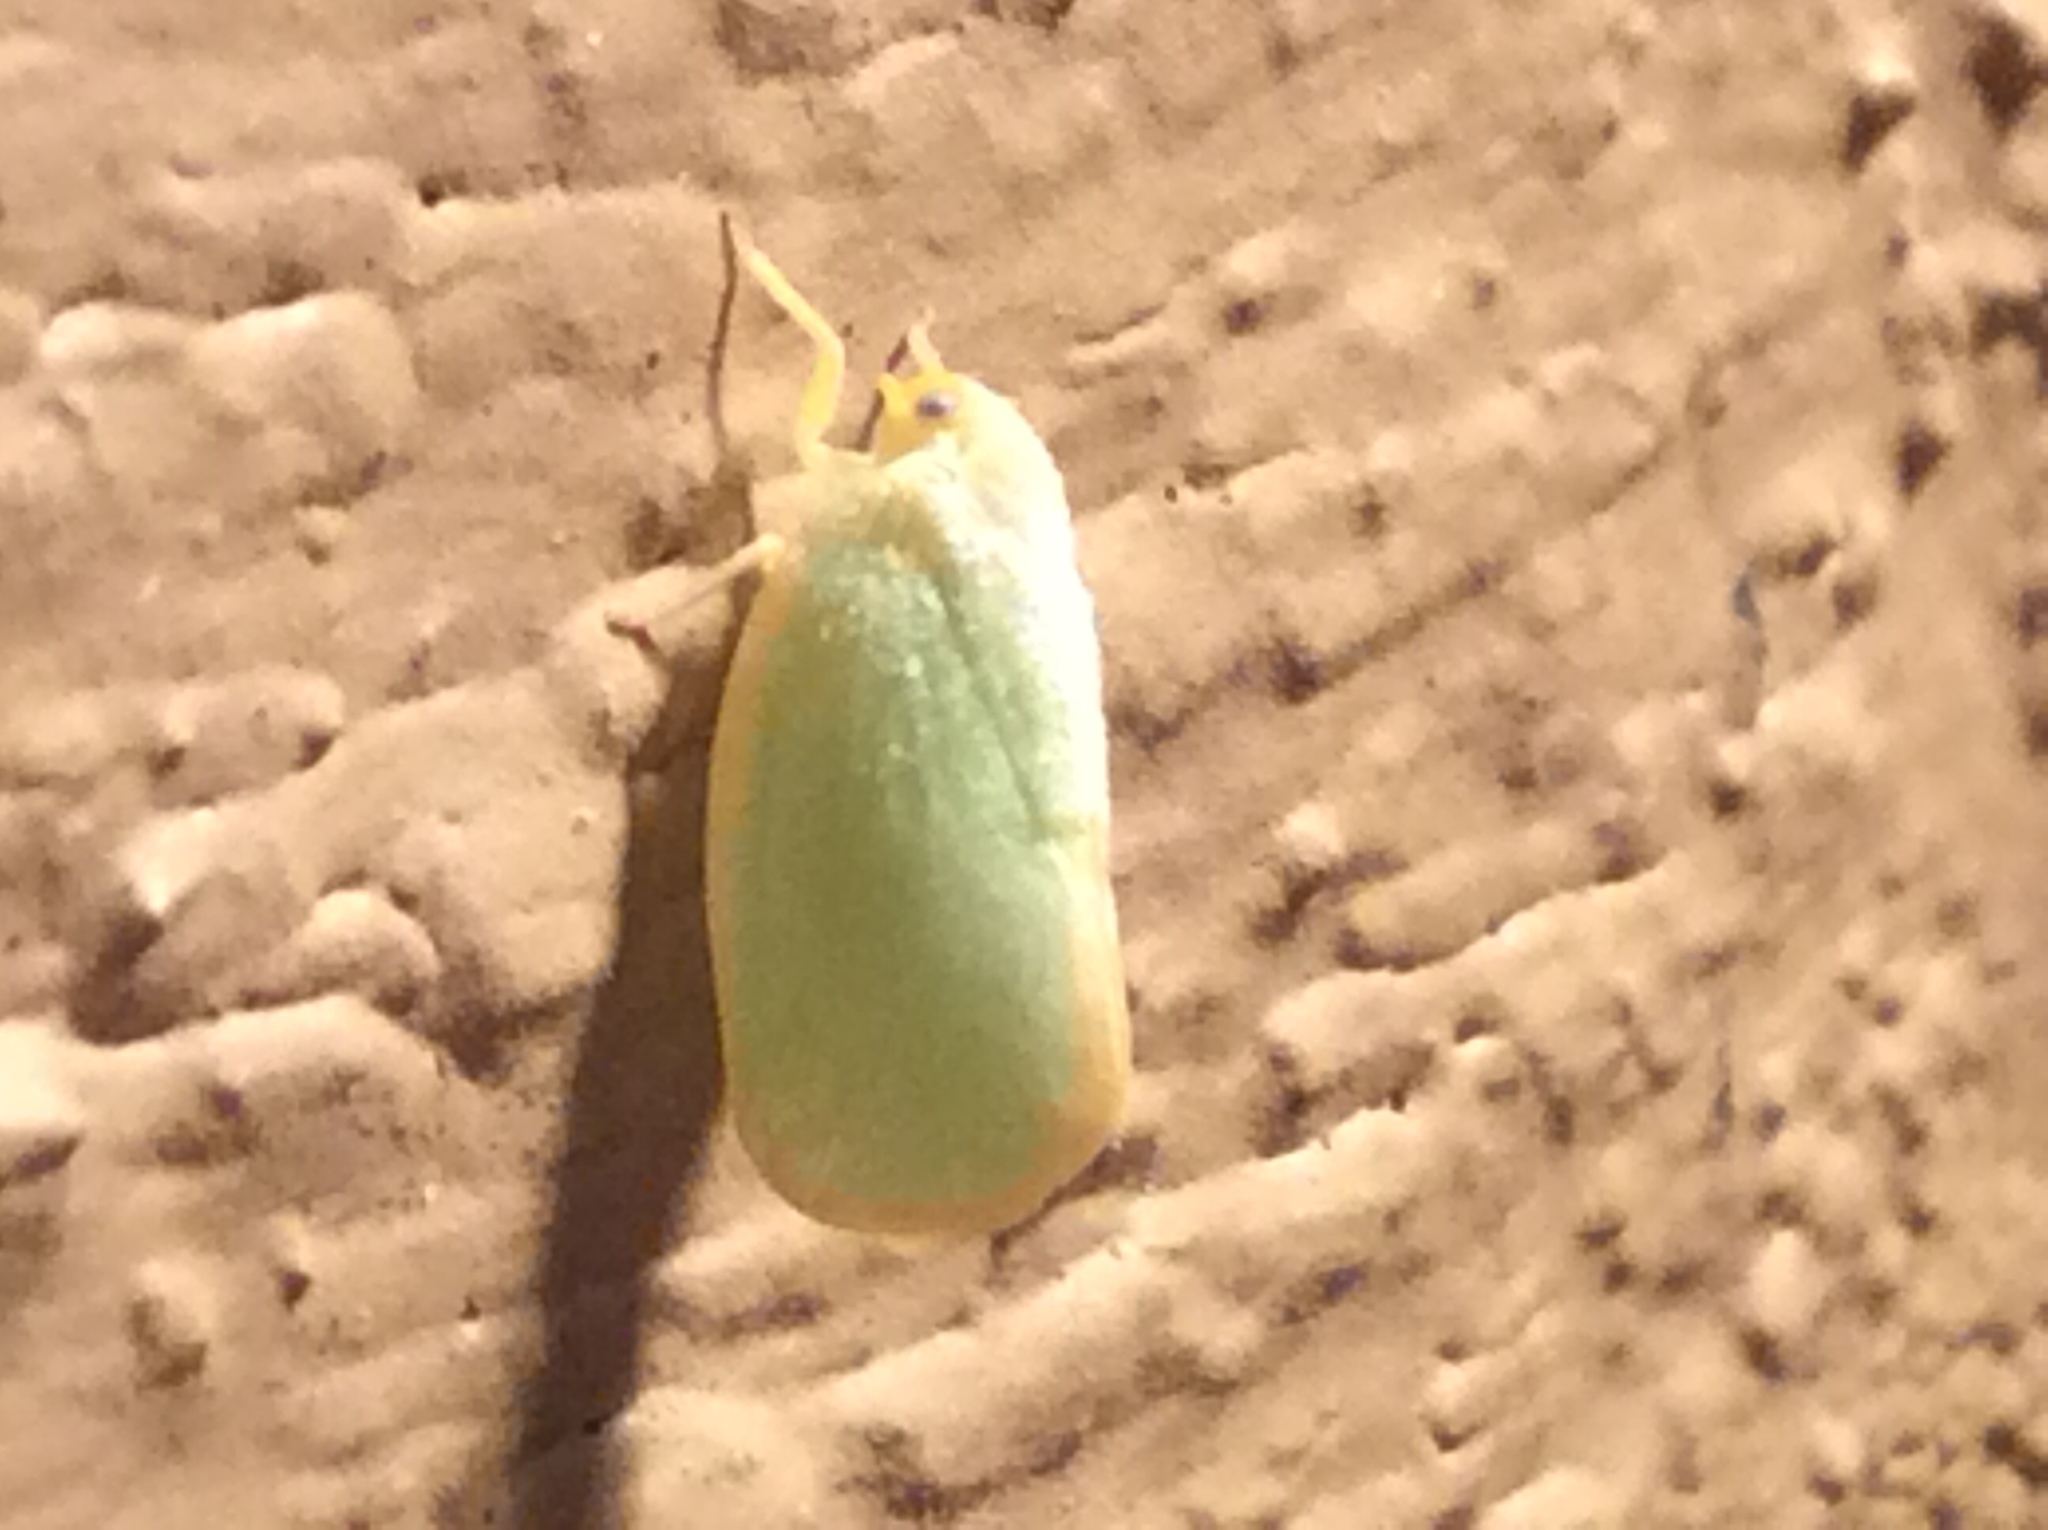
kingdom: Animalia
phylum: Arthropoda
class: Insecta
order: Hemiptera
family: Flatidae
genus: Ormenoides
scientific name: Ormenoides venusta
